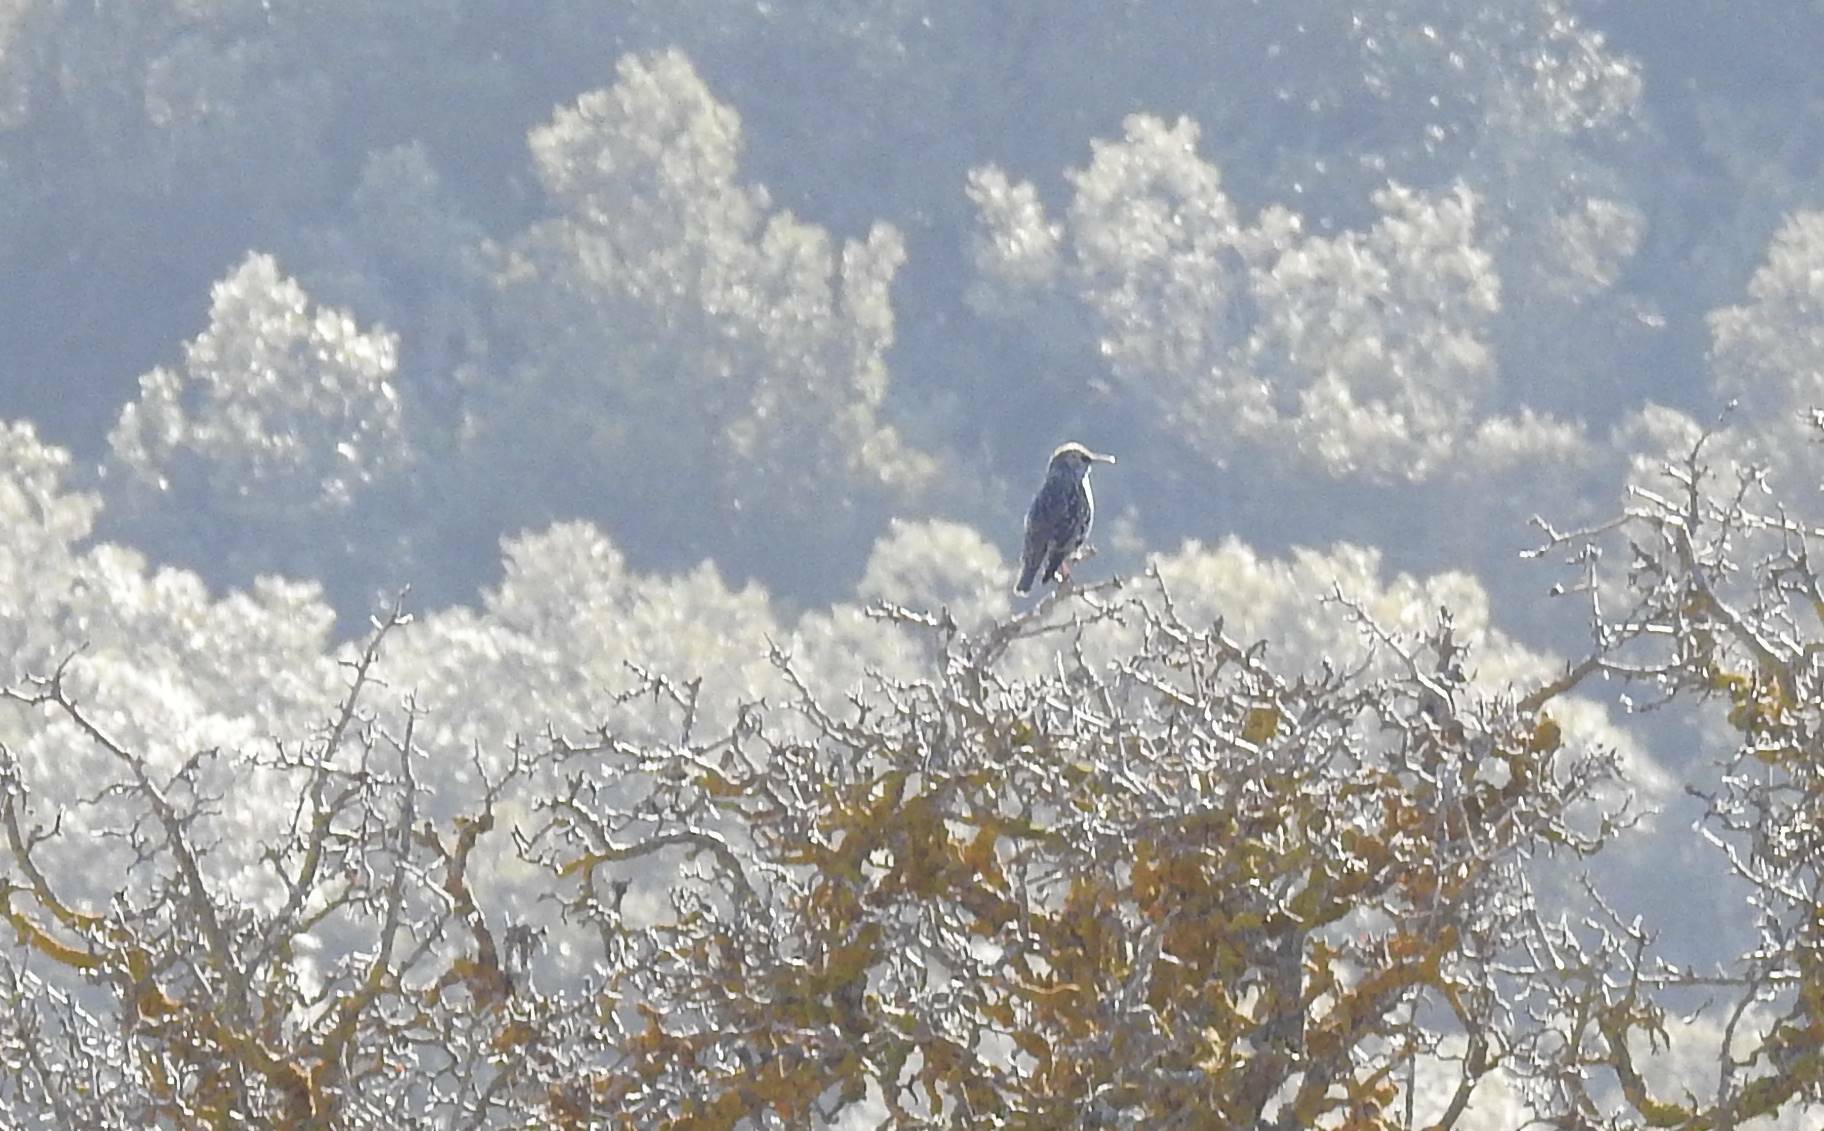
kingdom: Animalia
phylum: Chordata
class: Aves
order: Passeriformes
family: Sturnidae
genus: Sturnus
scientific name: Sturnus vulgaris
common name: Common starling
